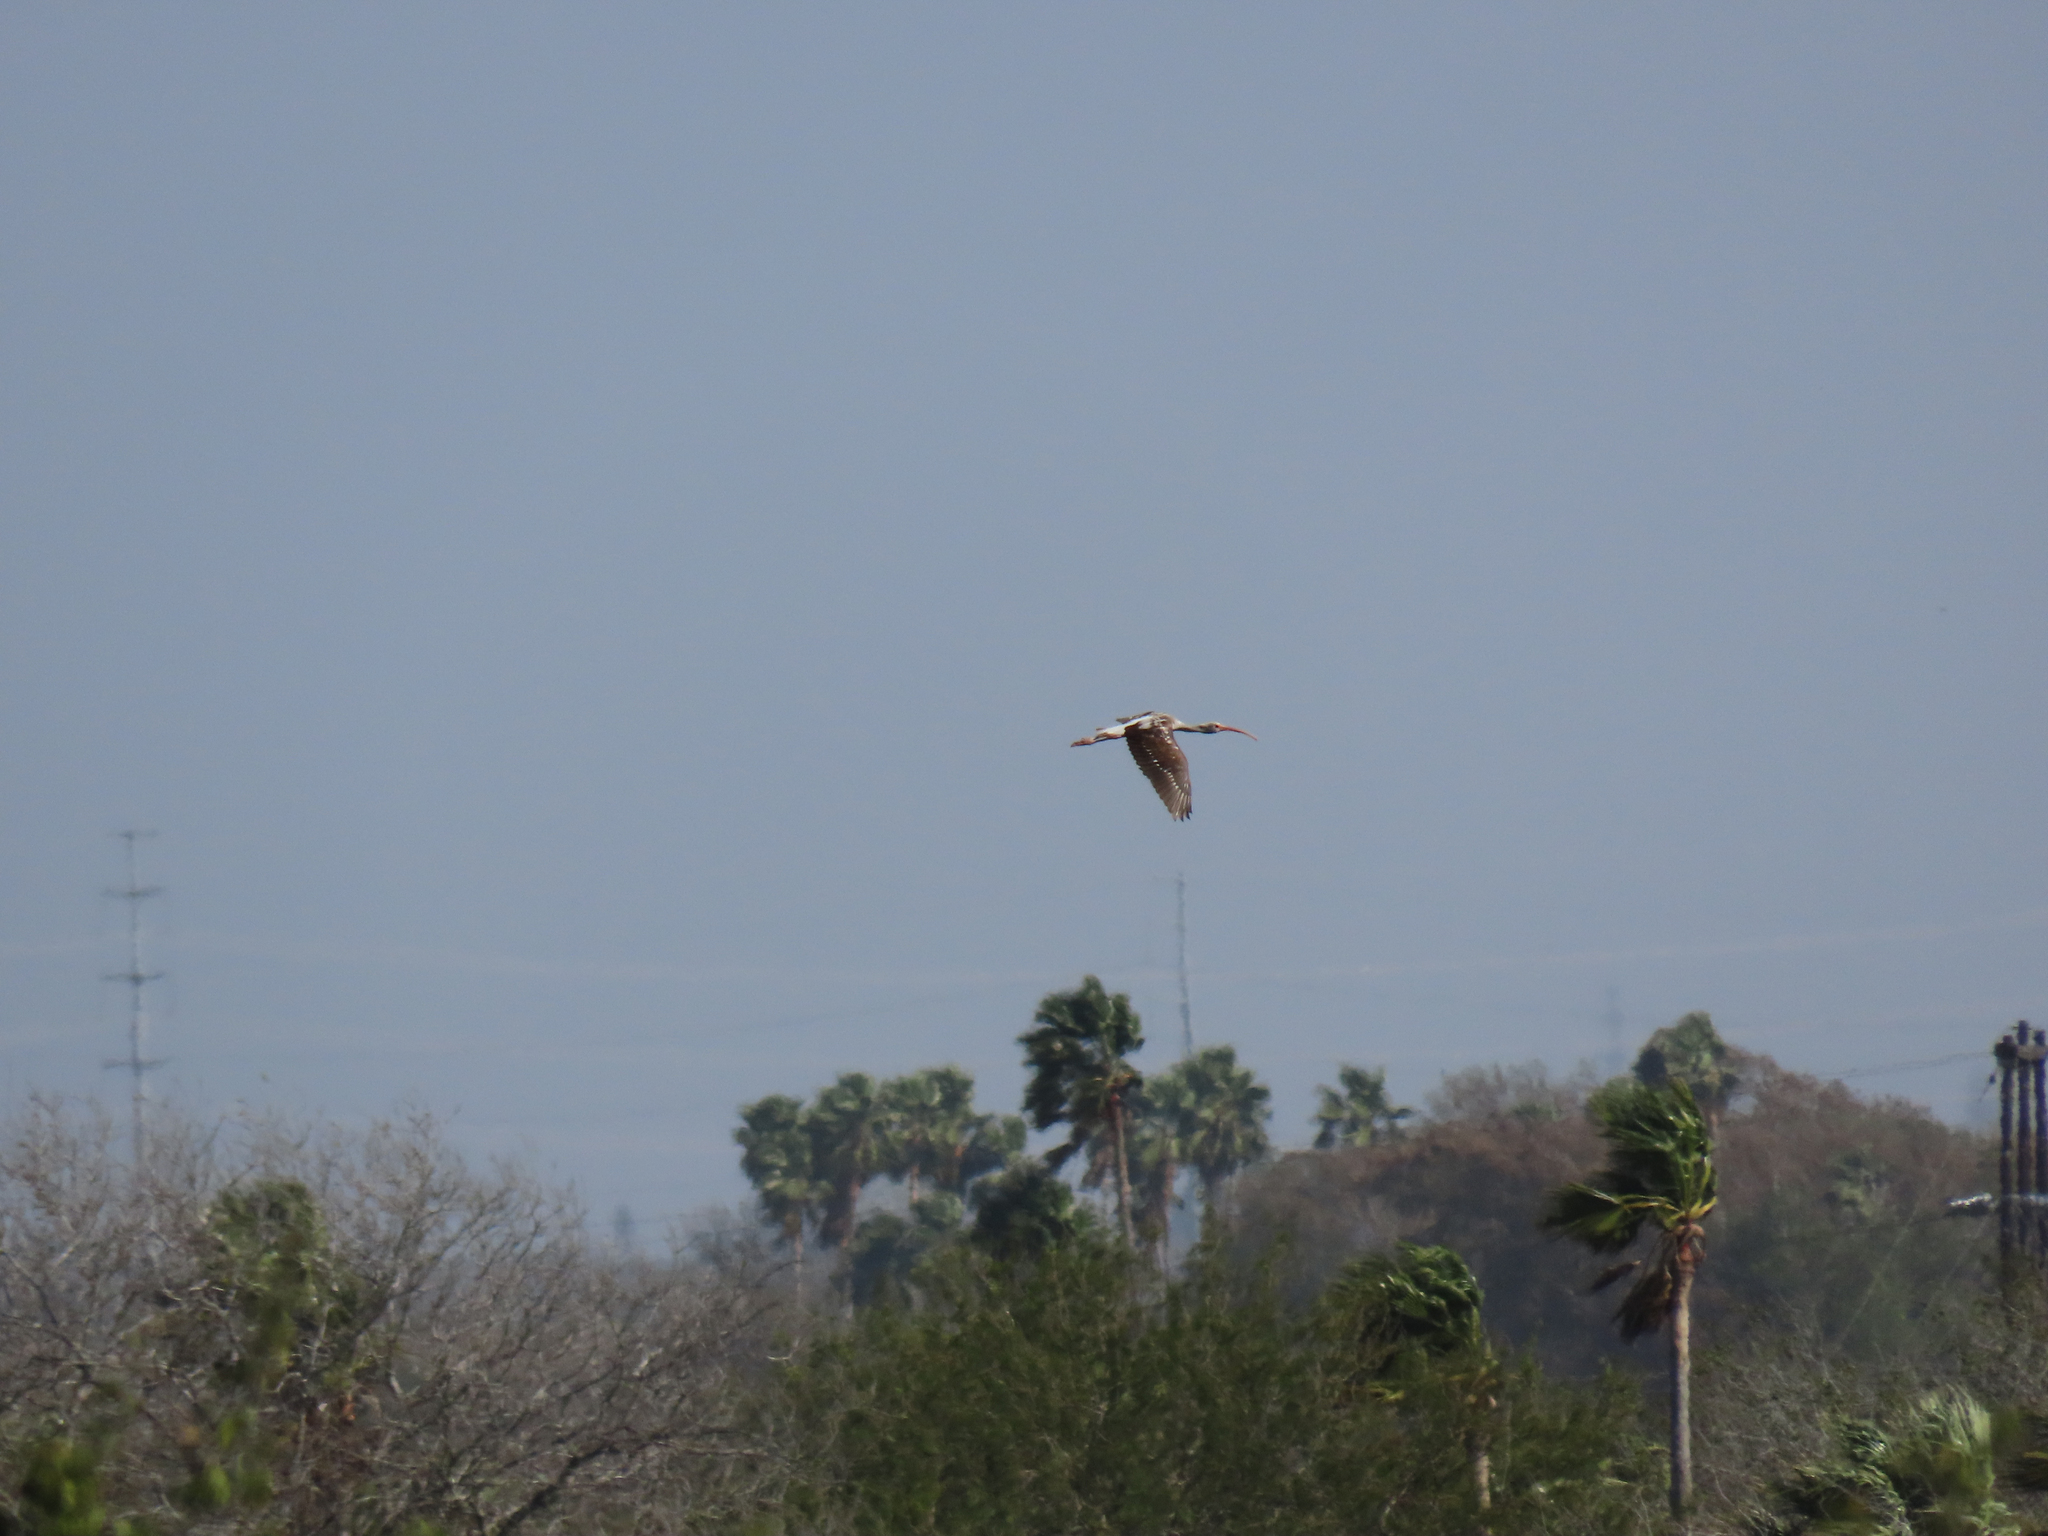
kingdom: Animalia
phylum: Chordata
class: Aves
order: Pelecaniformes
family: Threskiornithidae
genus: Eudocimus
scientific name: Eudocimus albus
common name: White ibis
